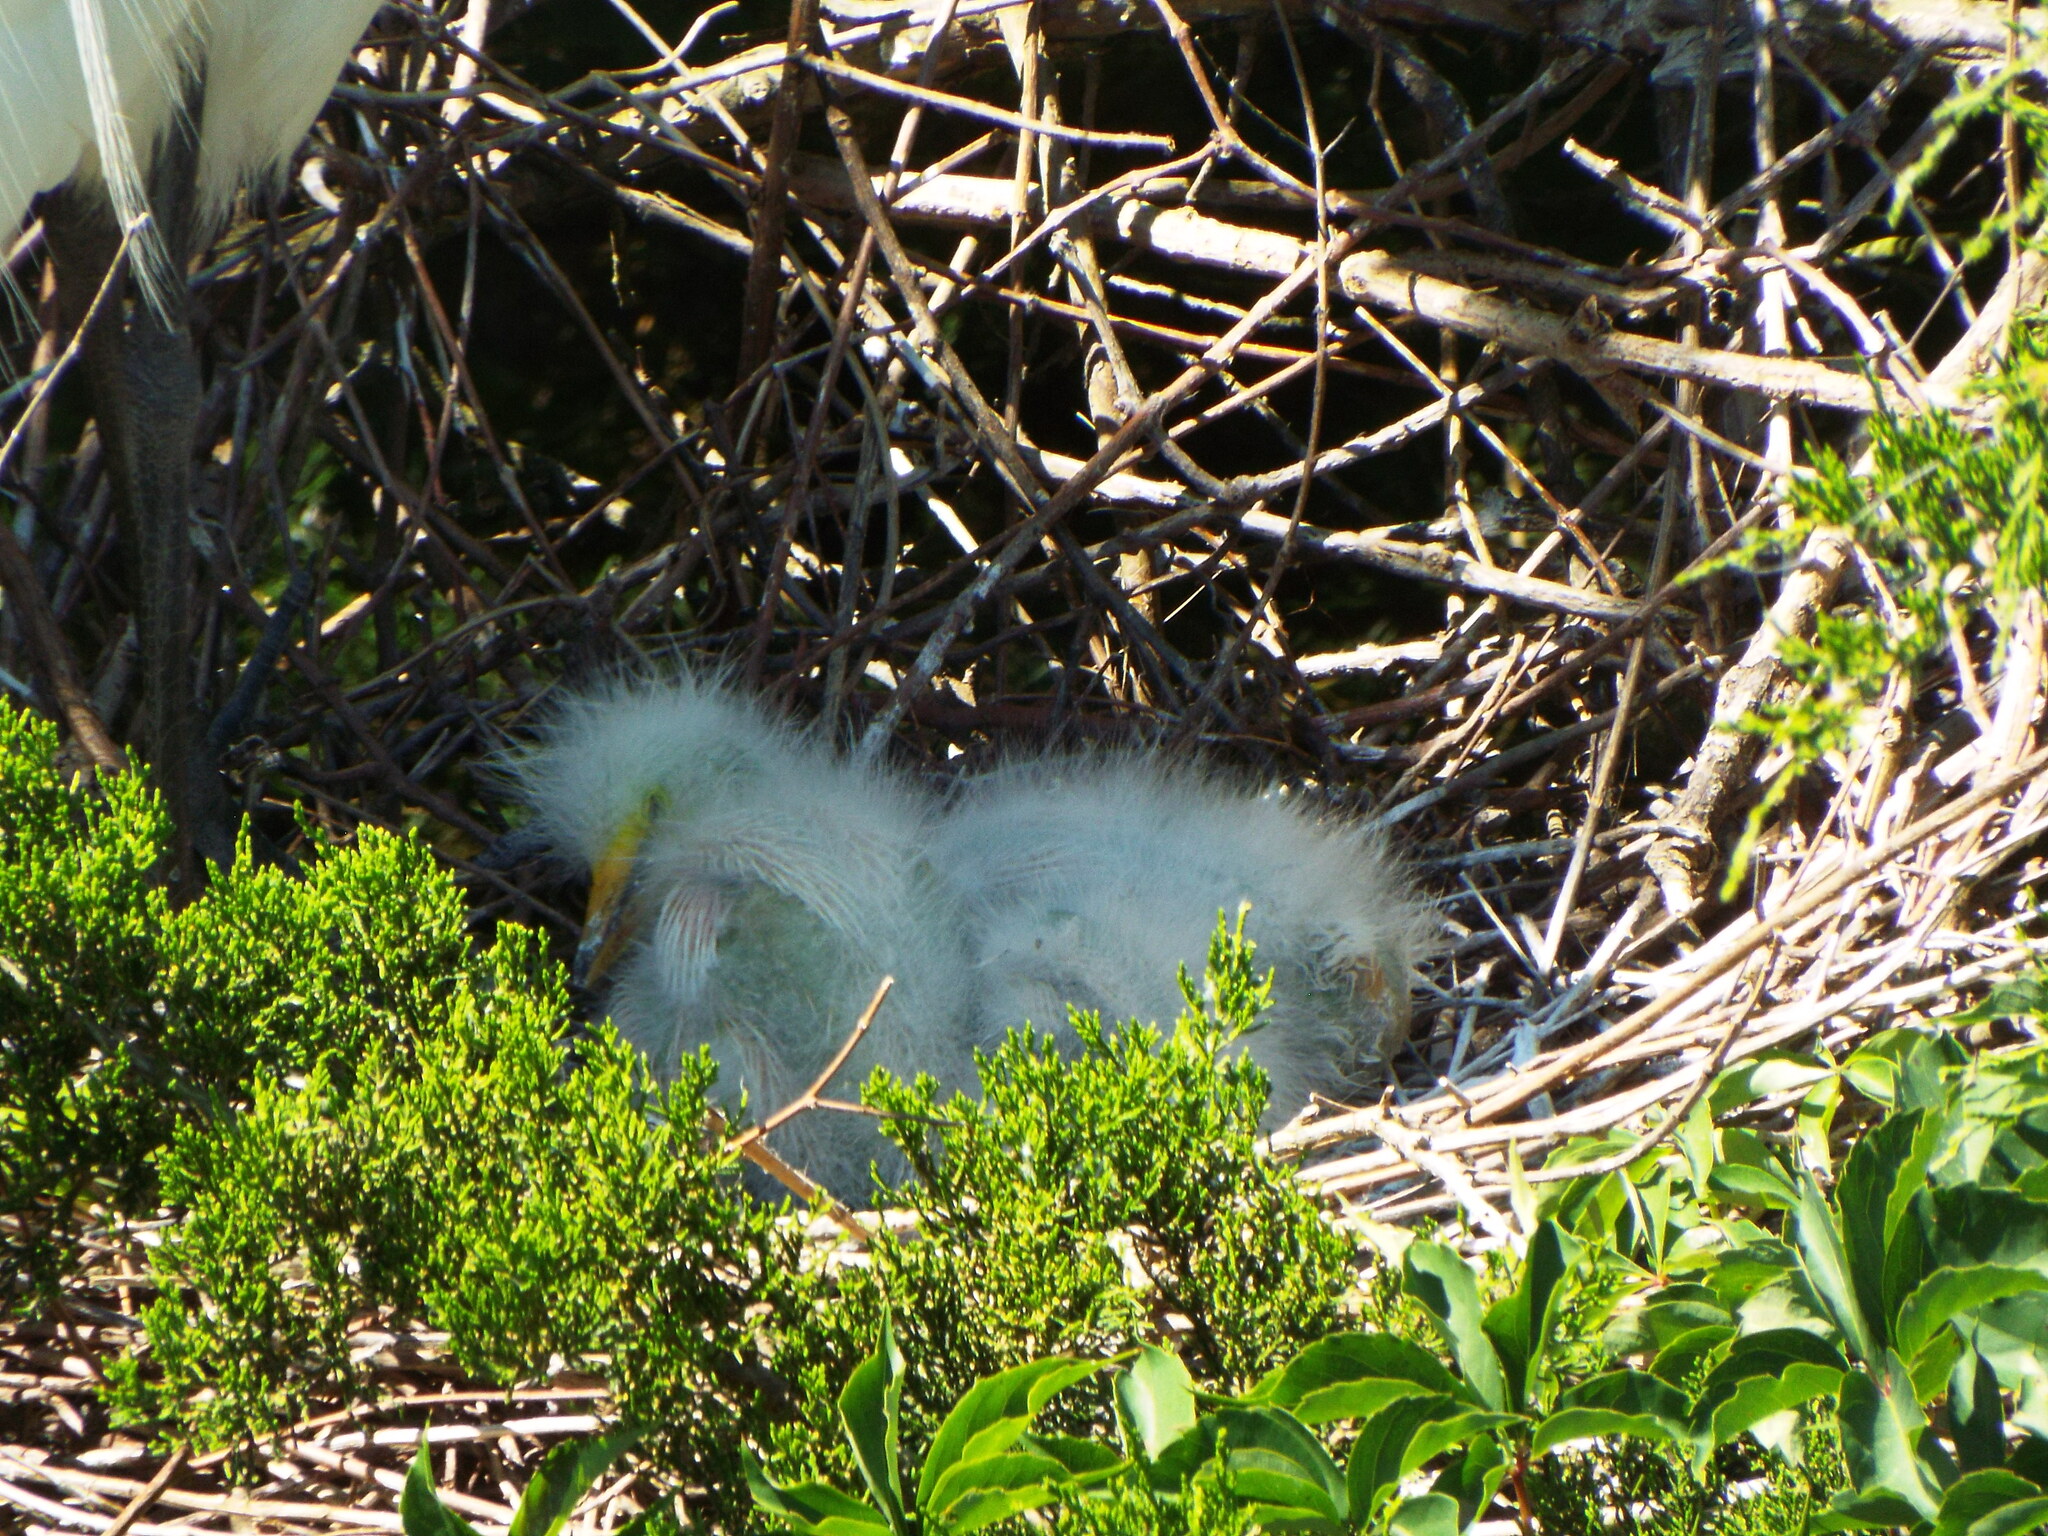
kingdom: Animalia
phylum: Chordata
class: Aves
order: Pelecaniformes
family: Ardeidae
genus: Ardea
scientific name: Ardea alba
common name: Great egret
